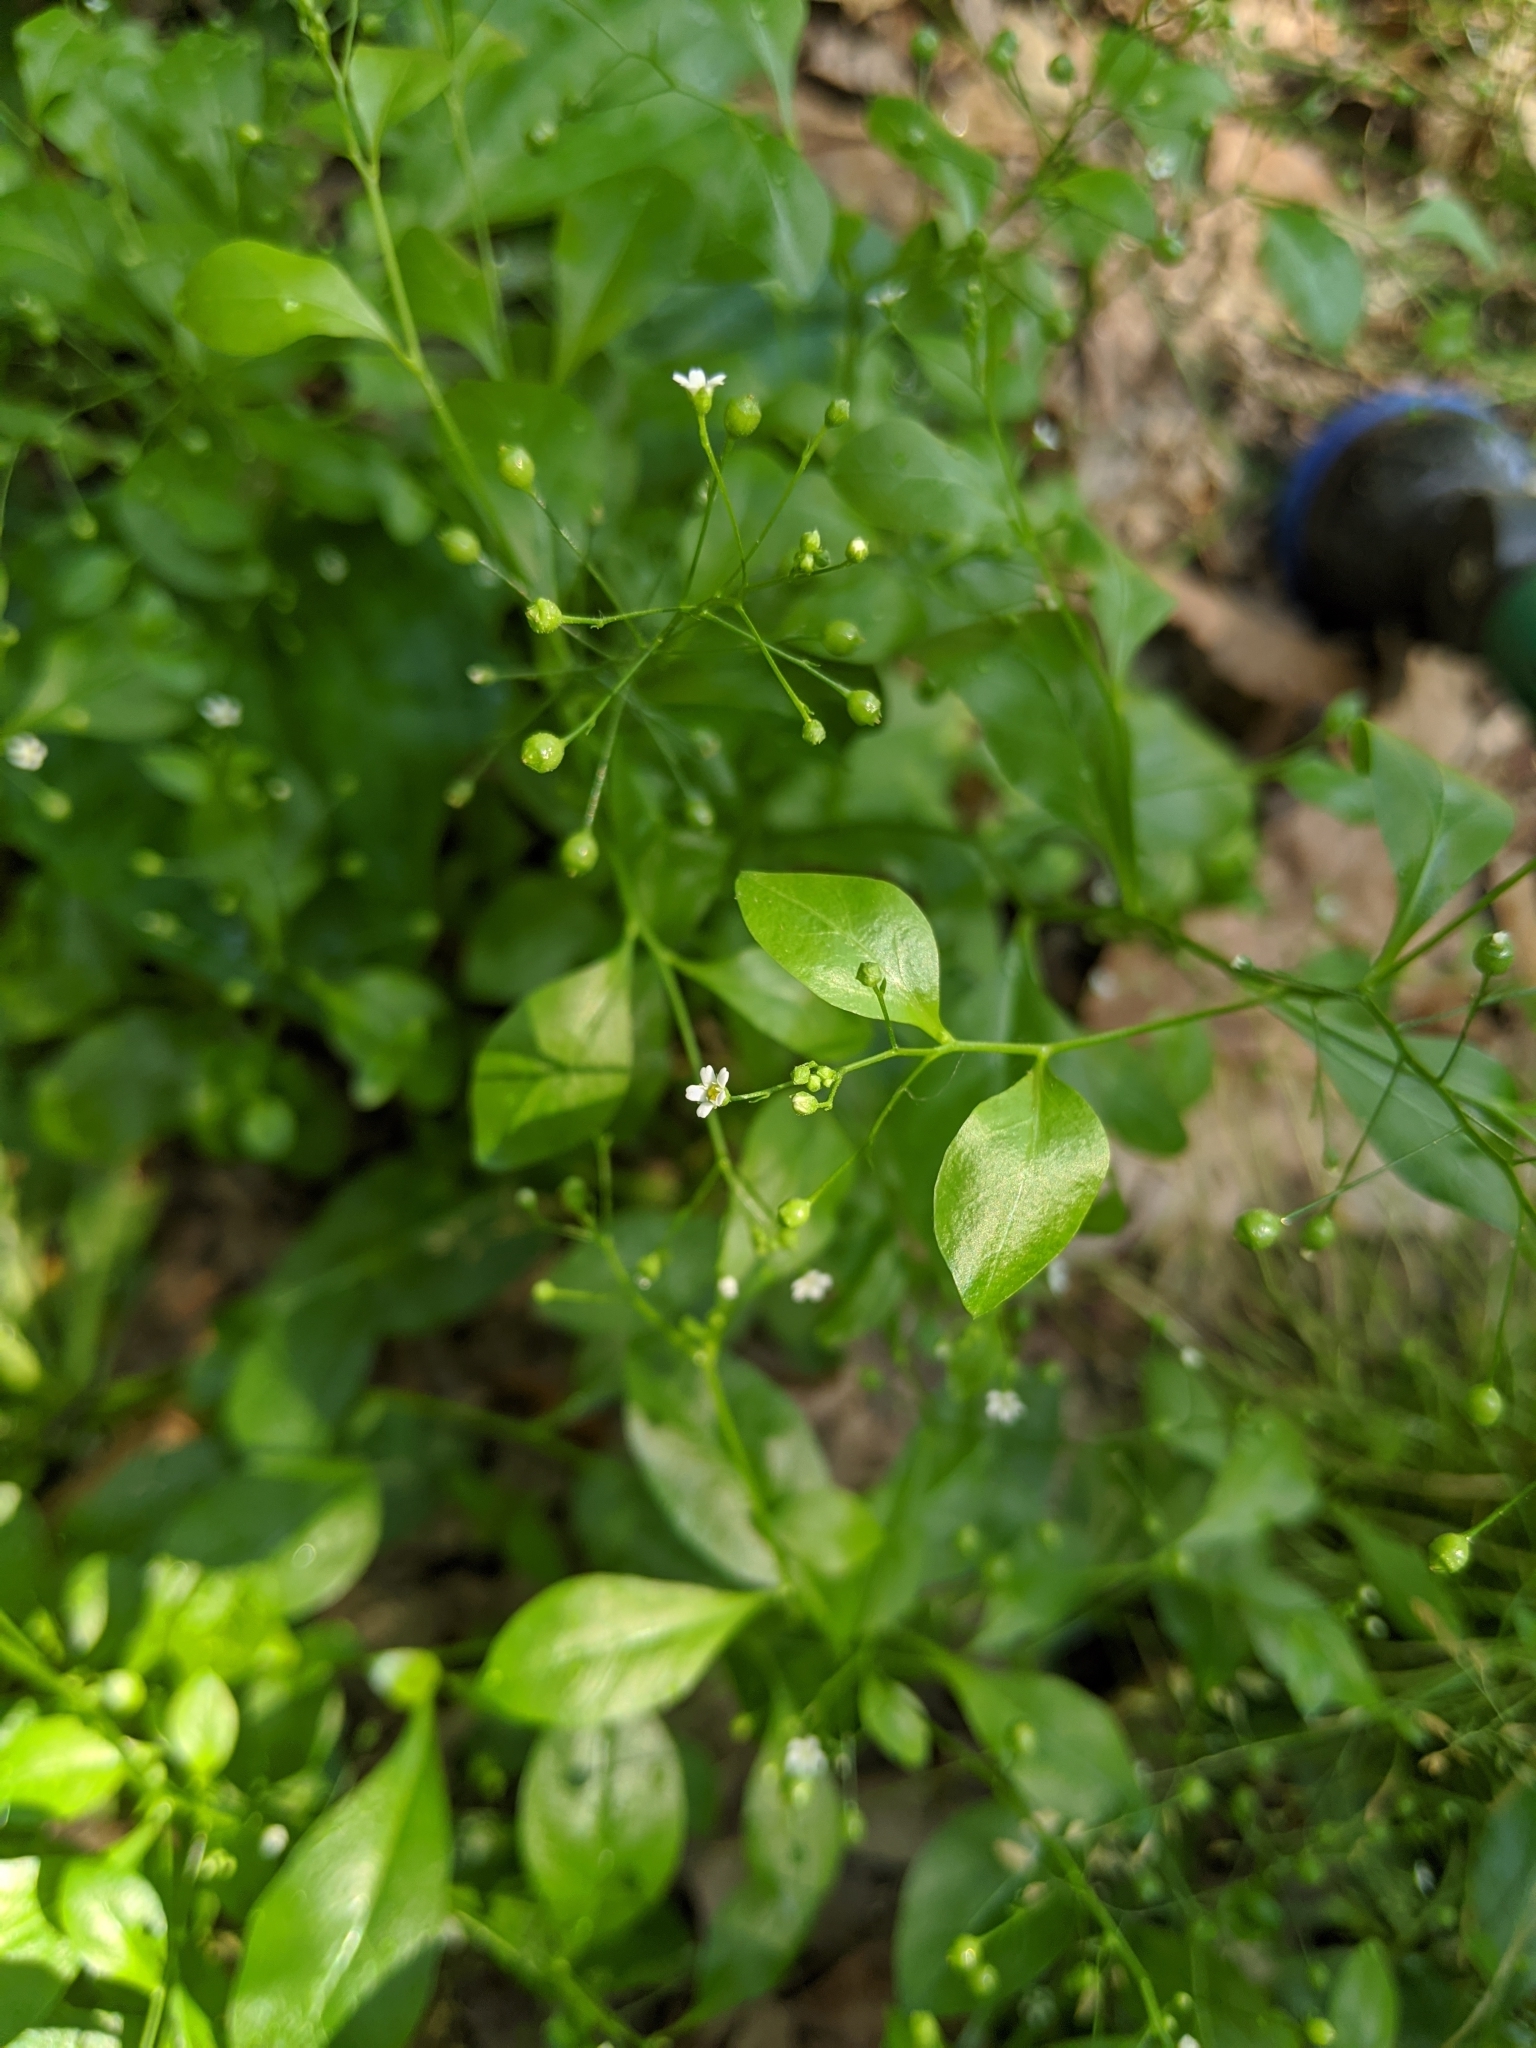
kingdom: Plantae
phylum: Tracheophyta
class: Magnoliopsida
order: Ericales
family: Primulaceae
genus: Samolus
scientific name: Samolus parviflorus
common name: False water pimpernel
